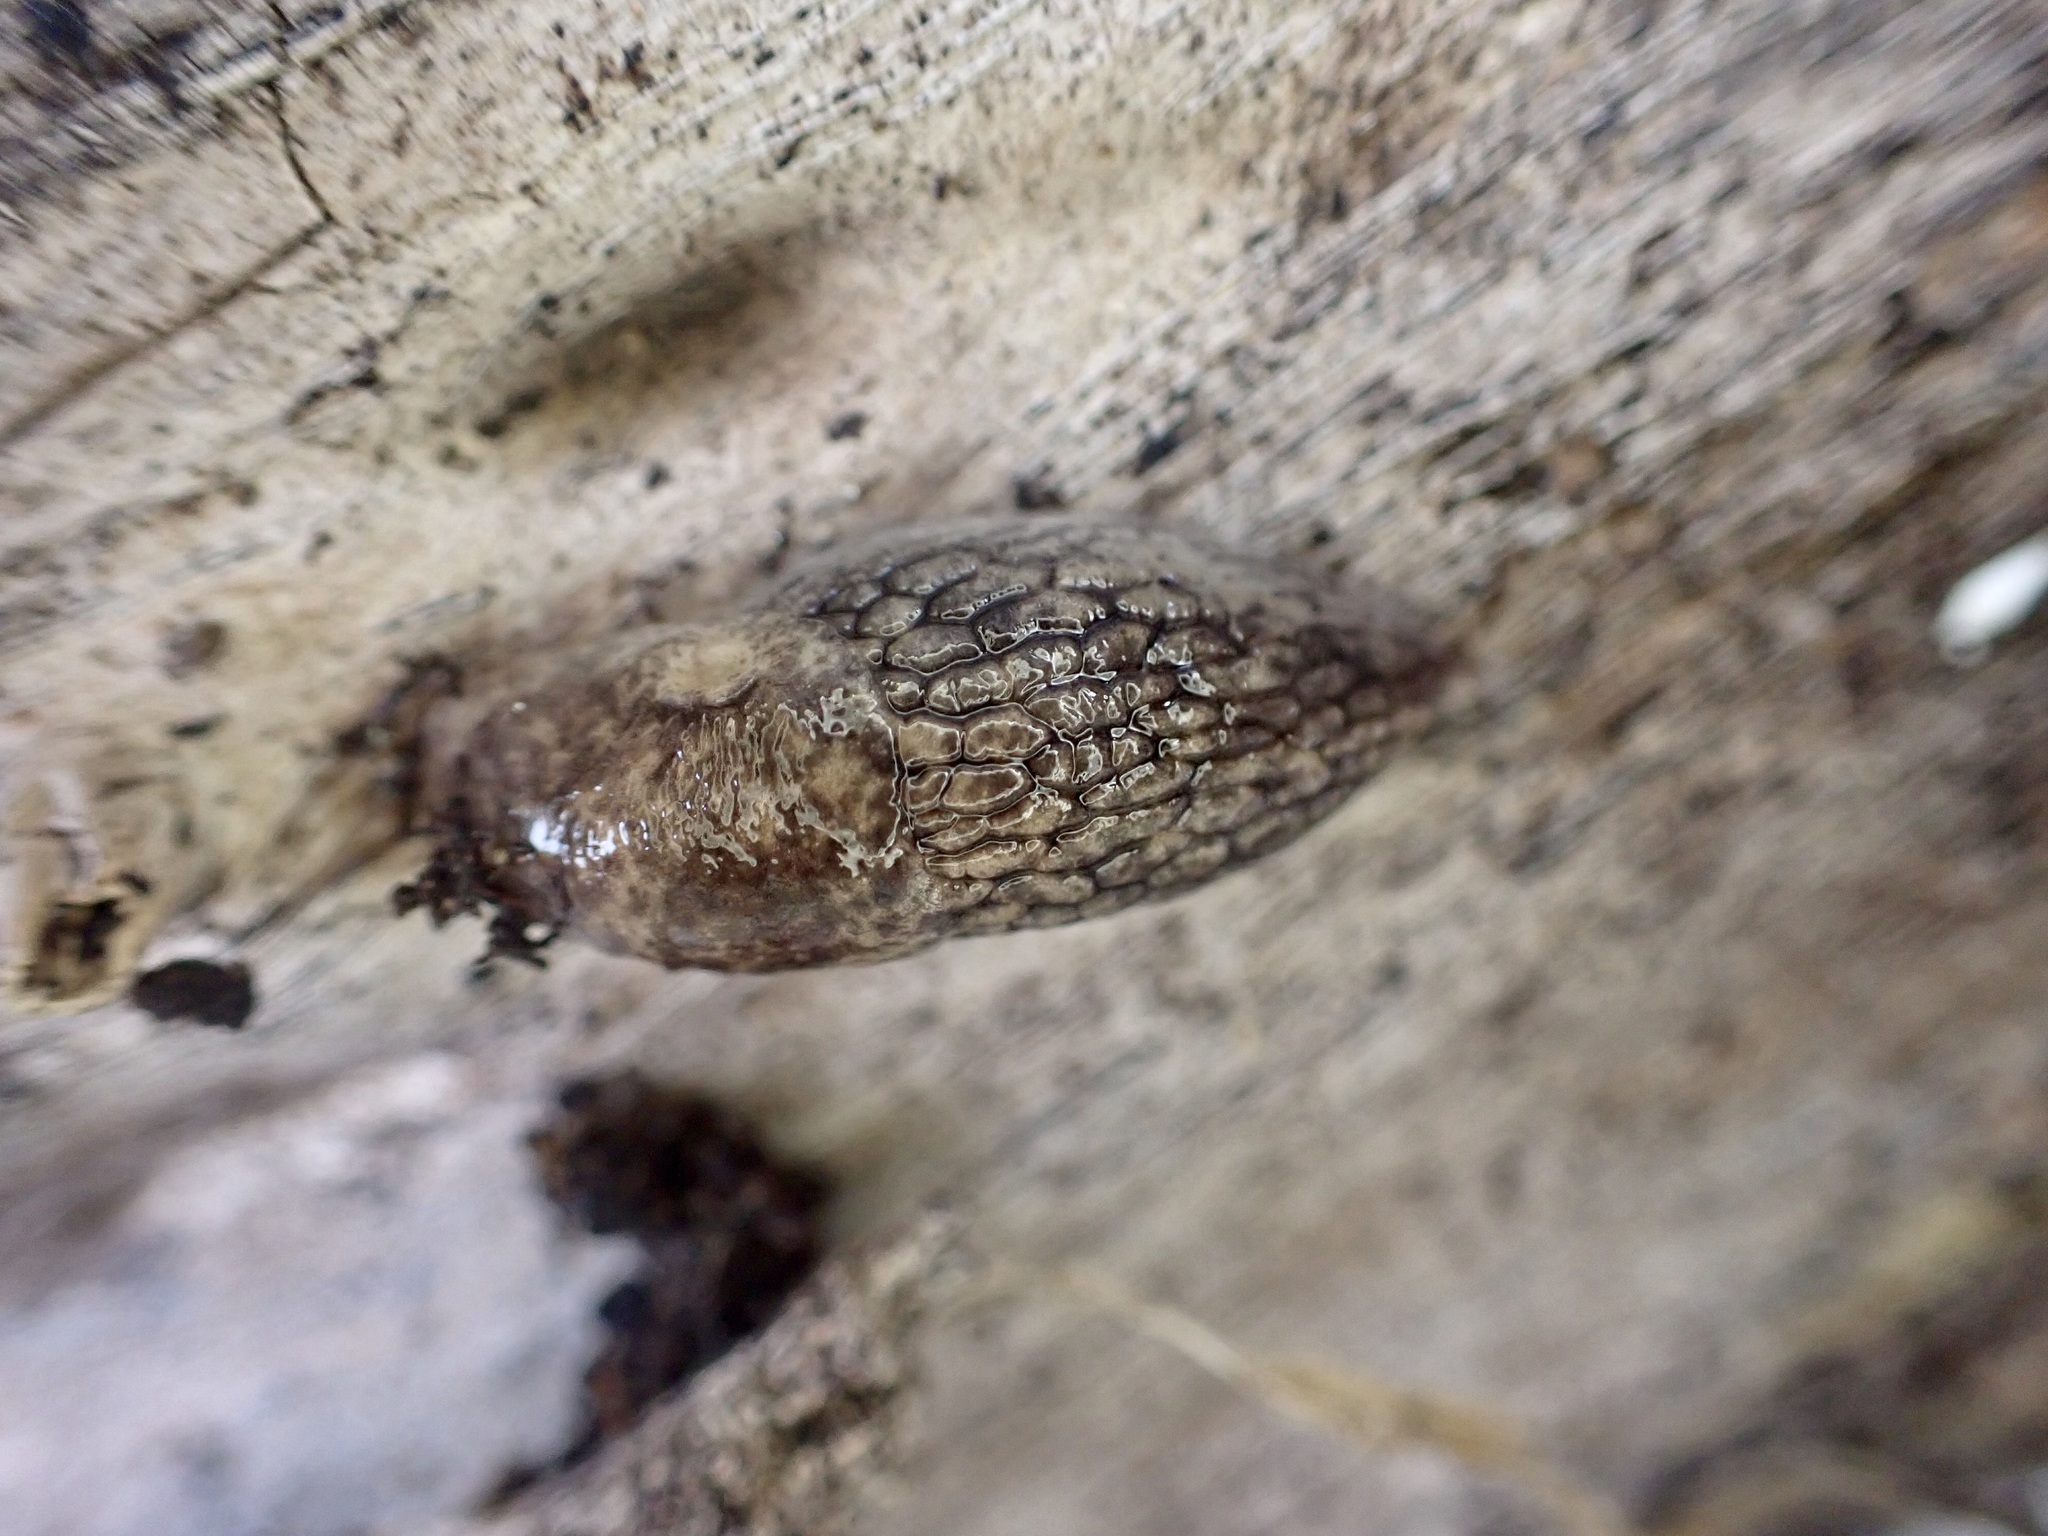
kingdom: Animalia
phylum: Mollusca
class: Gastropoda
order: Stylommatophora
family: Agriolimacidae
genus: Deroceras
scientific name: Deroceras reticulatum
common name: Gray field slug
